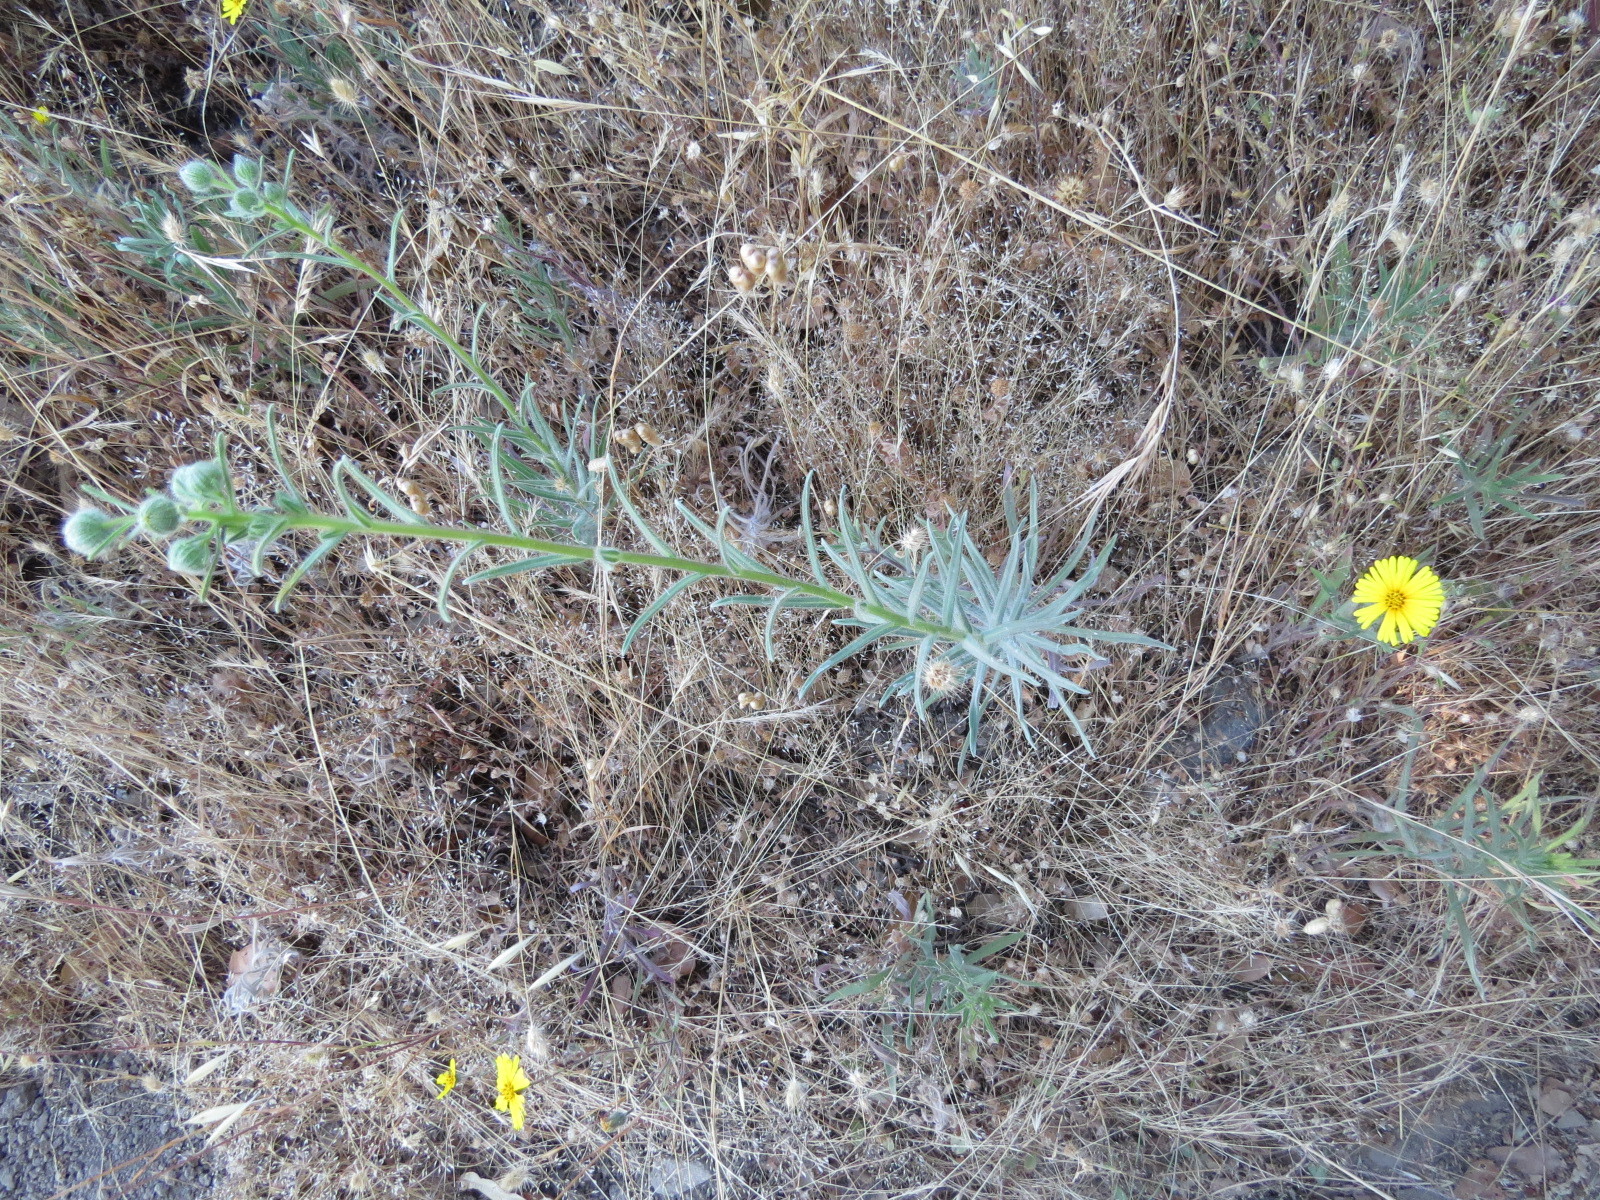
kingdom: Plantae
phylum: Tracheophyta
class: Magnoliopsida
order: Asterales
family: Asteraceae
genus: Madia
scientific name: Madia elegans
